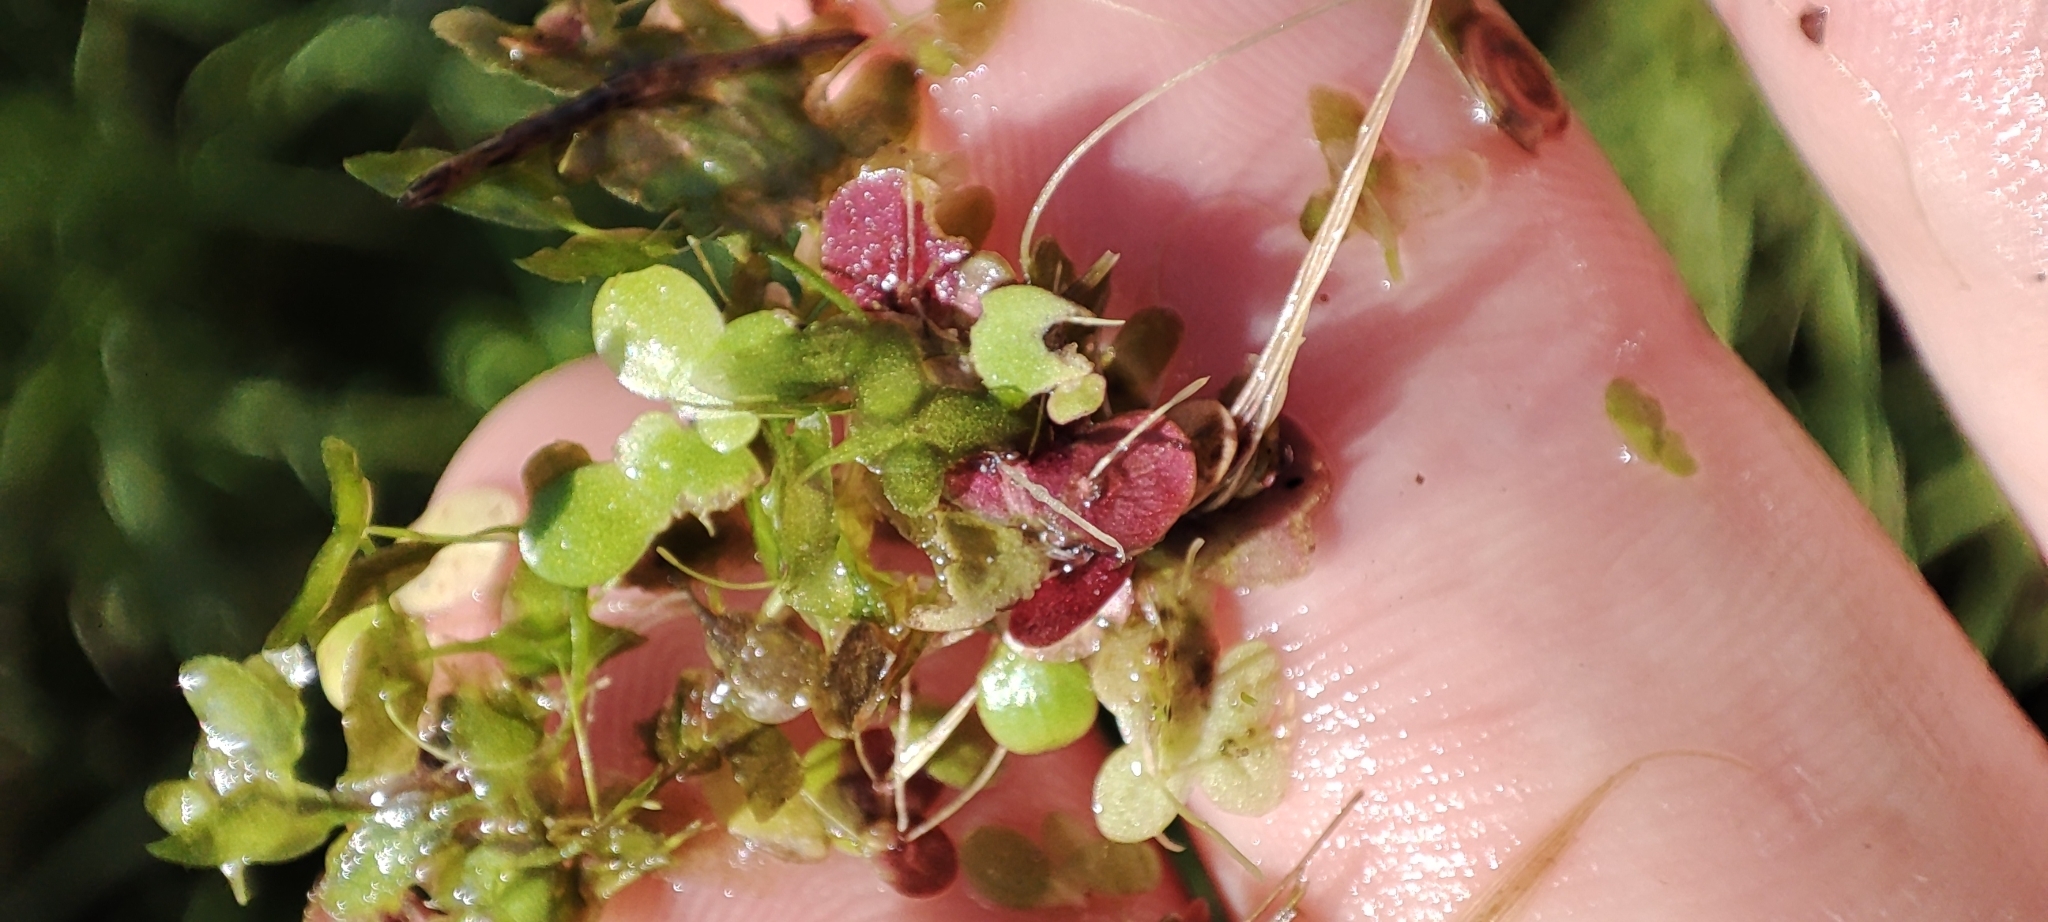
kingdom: Plantae
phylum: Tracheophyta
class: Liliopsida
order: Alismatales
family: Araceae
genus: Spirodela
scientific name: Spirodela polyrhiza
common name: Great duckweed
